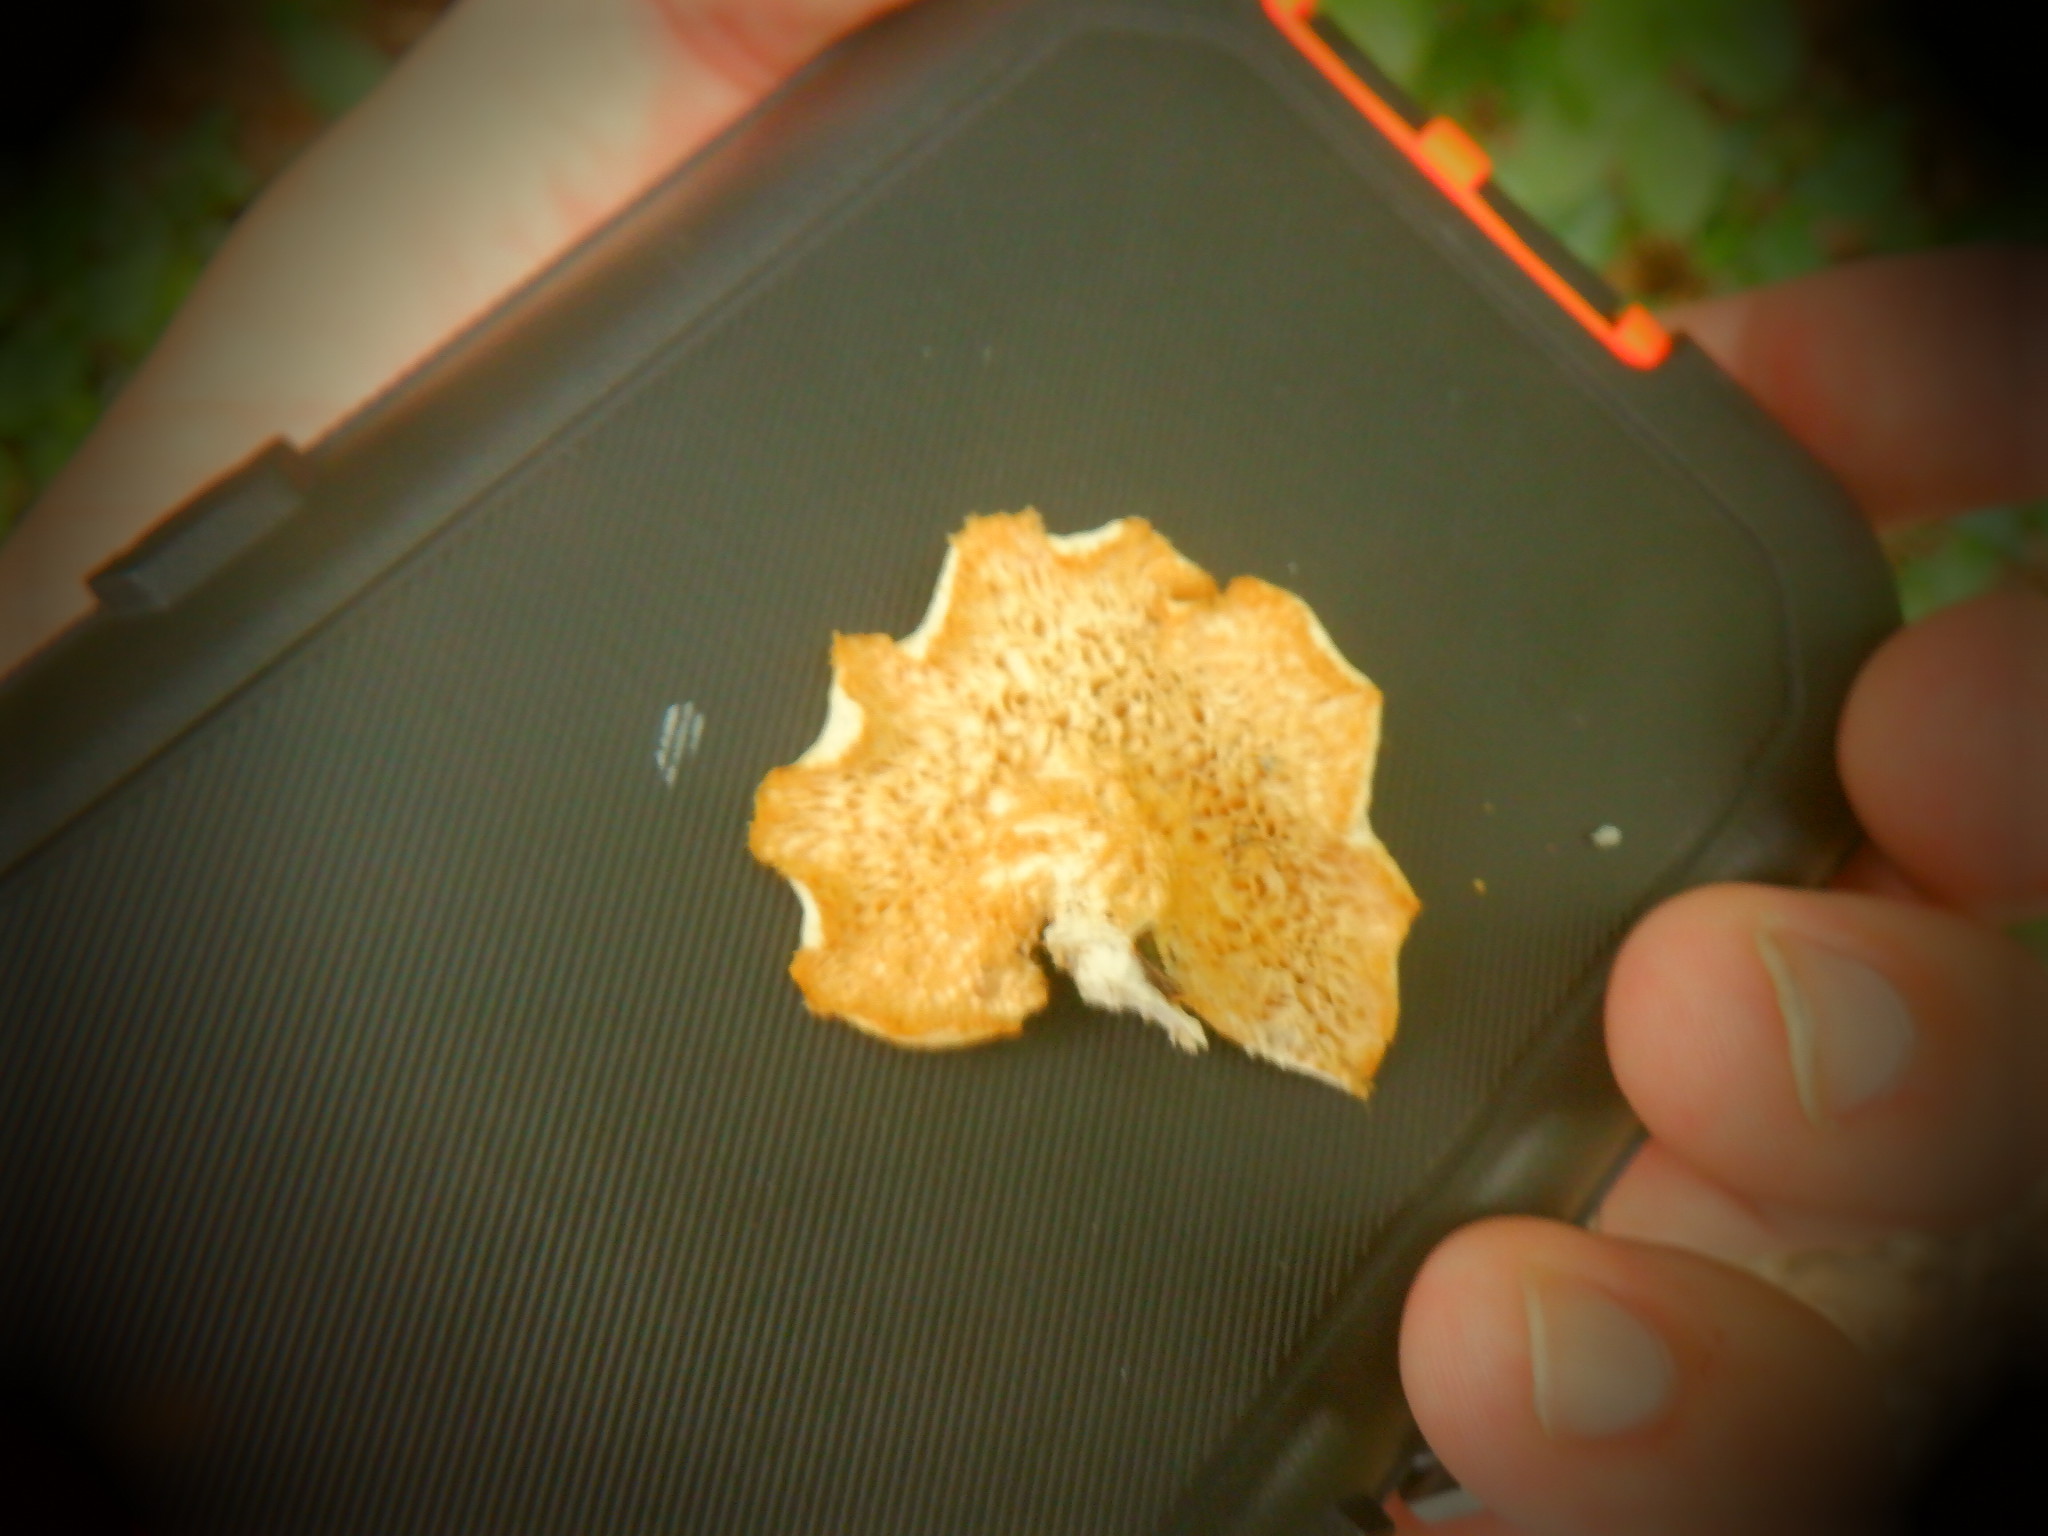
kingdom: Fungi
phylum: Basidiomycota
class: Agaricomycetes
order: Polyporales
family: Polyporaceae
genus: Neofavolus
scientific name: Neofavolus alveolaris
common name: Hexagonal-pored polypore
